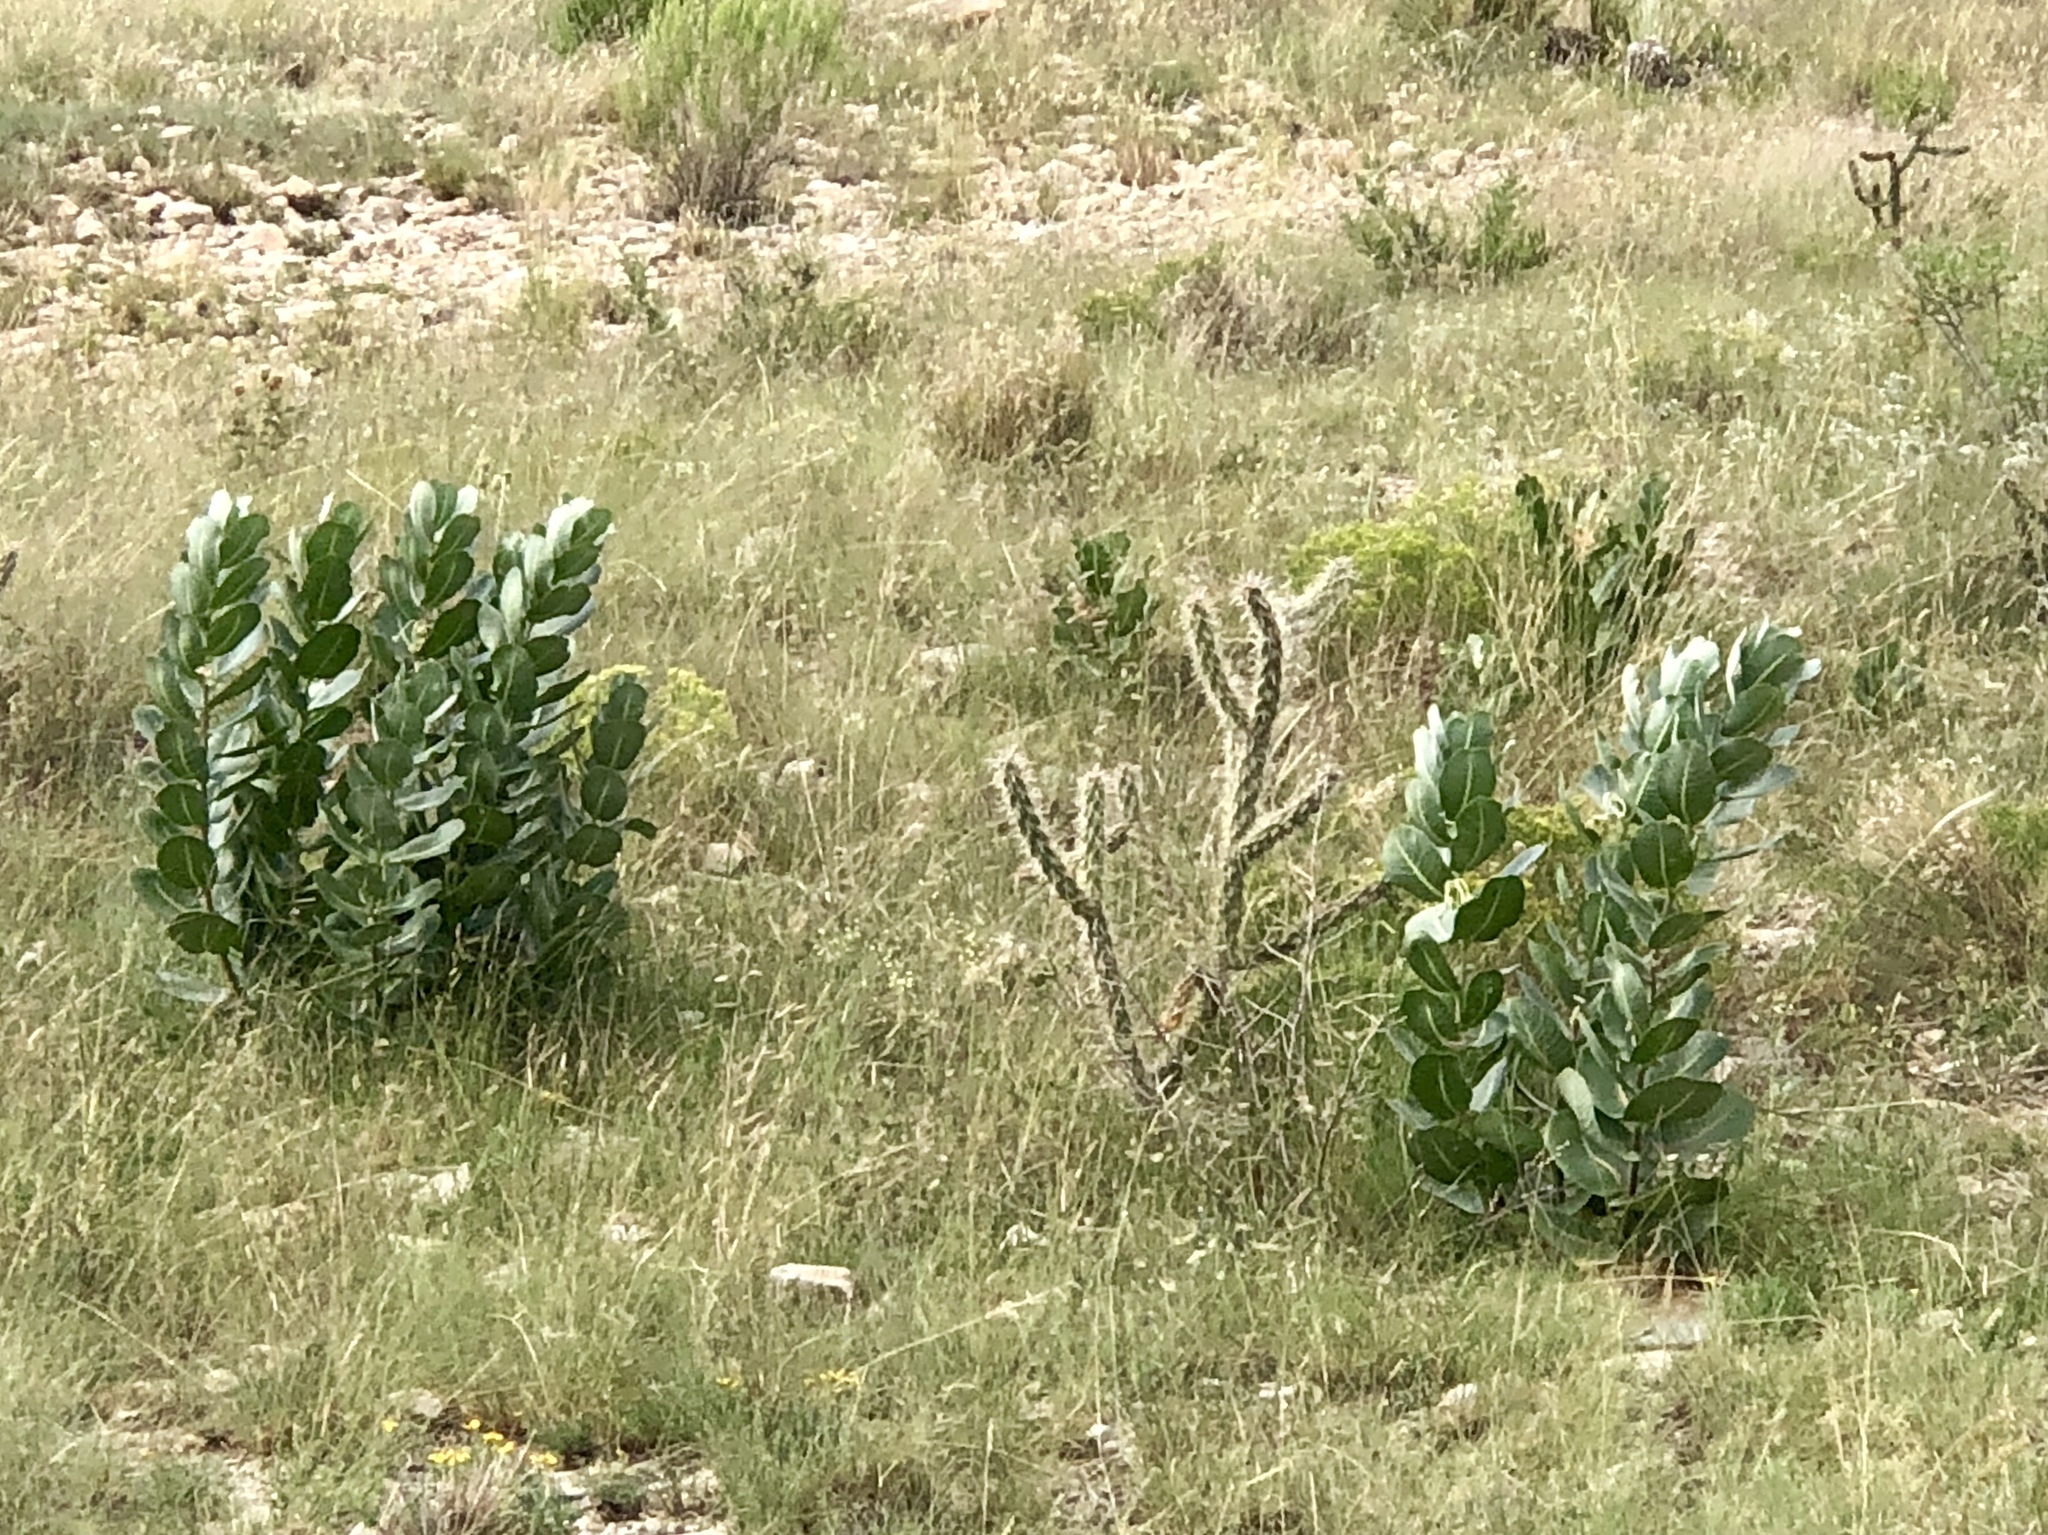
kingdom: Plantae
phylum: Tracheophyta
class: Magnoliopsida
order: Gentianales
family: Apocynaceae
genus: Asclepias
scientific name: Asclepias latifolia
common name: Broadleaf milkweed
